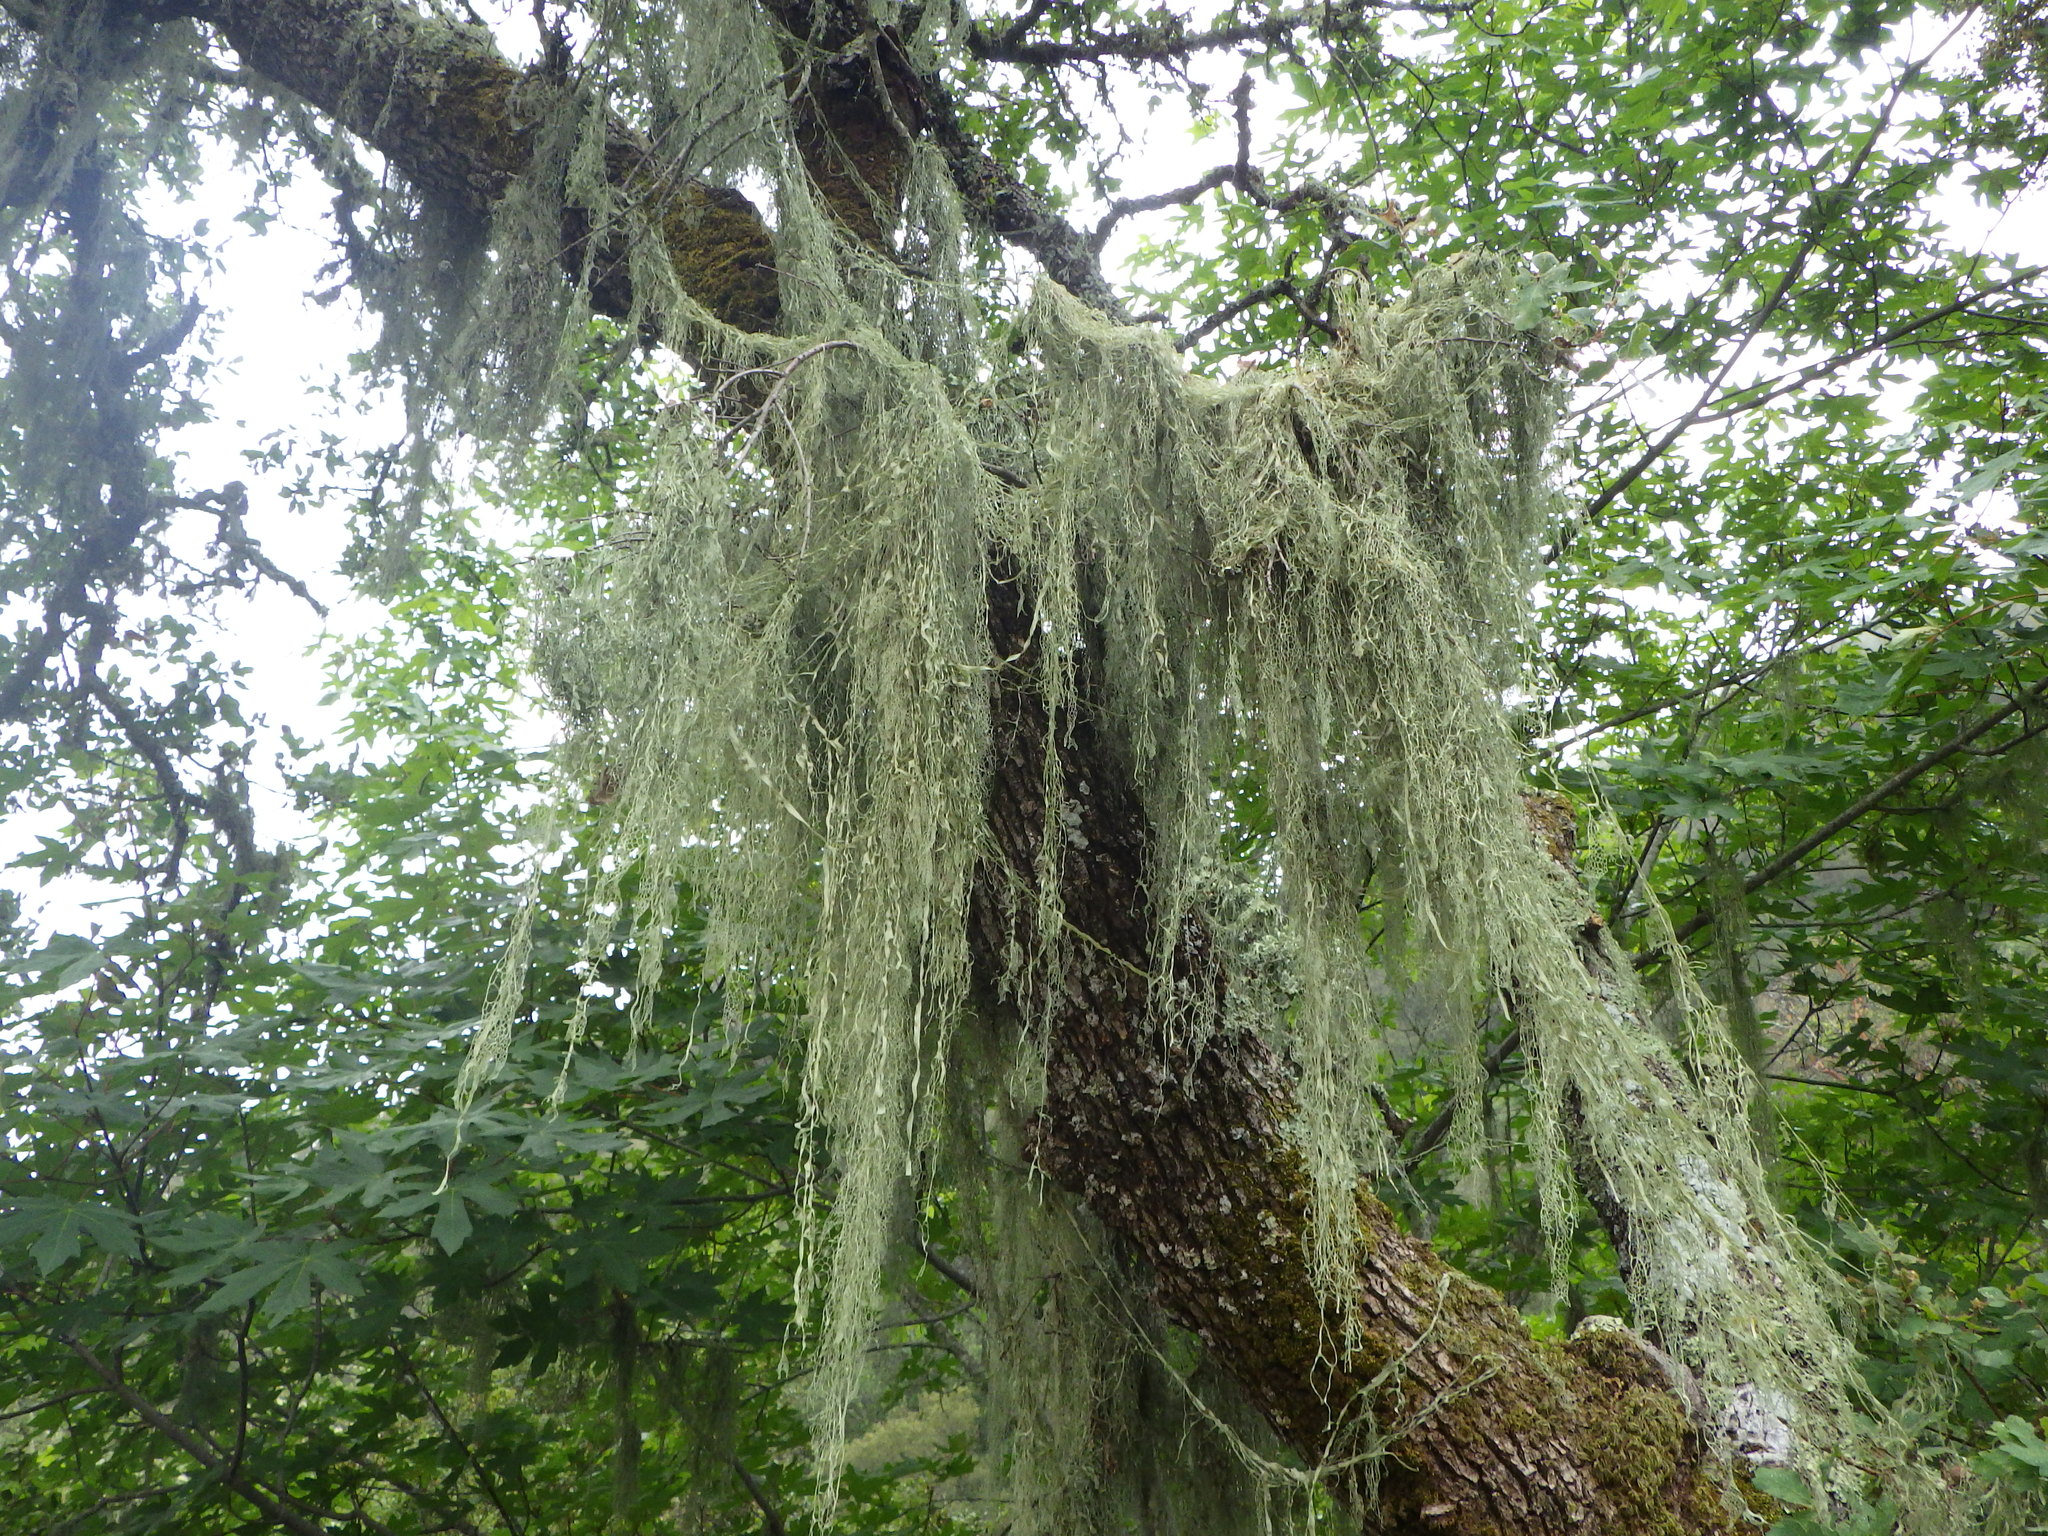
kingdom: Fungi
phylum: Ascomycota
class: Lecanoromycetes
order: Lecanorales
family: Ramalinaceae
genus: Ramalina
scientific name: Ramalina menziesii
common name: Lace lichen
